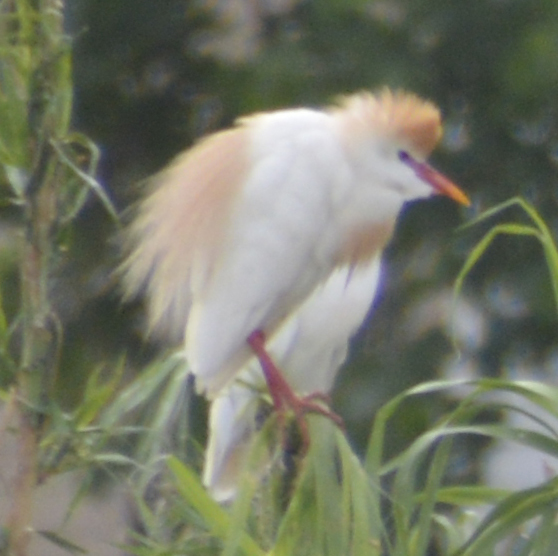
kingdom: Animalia
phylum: Chordata
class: Aves
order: Pelecaniformes
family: Ardeidae
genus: Bubulcus
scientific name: Bubulcus ibis
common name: Cattle egret
